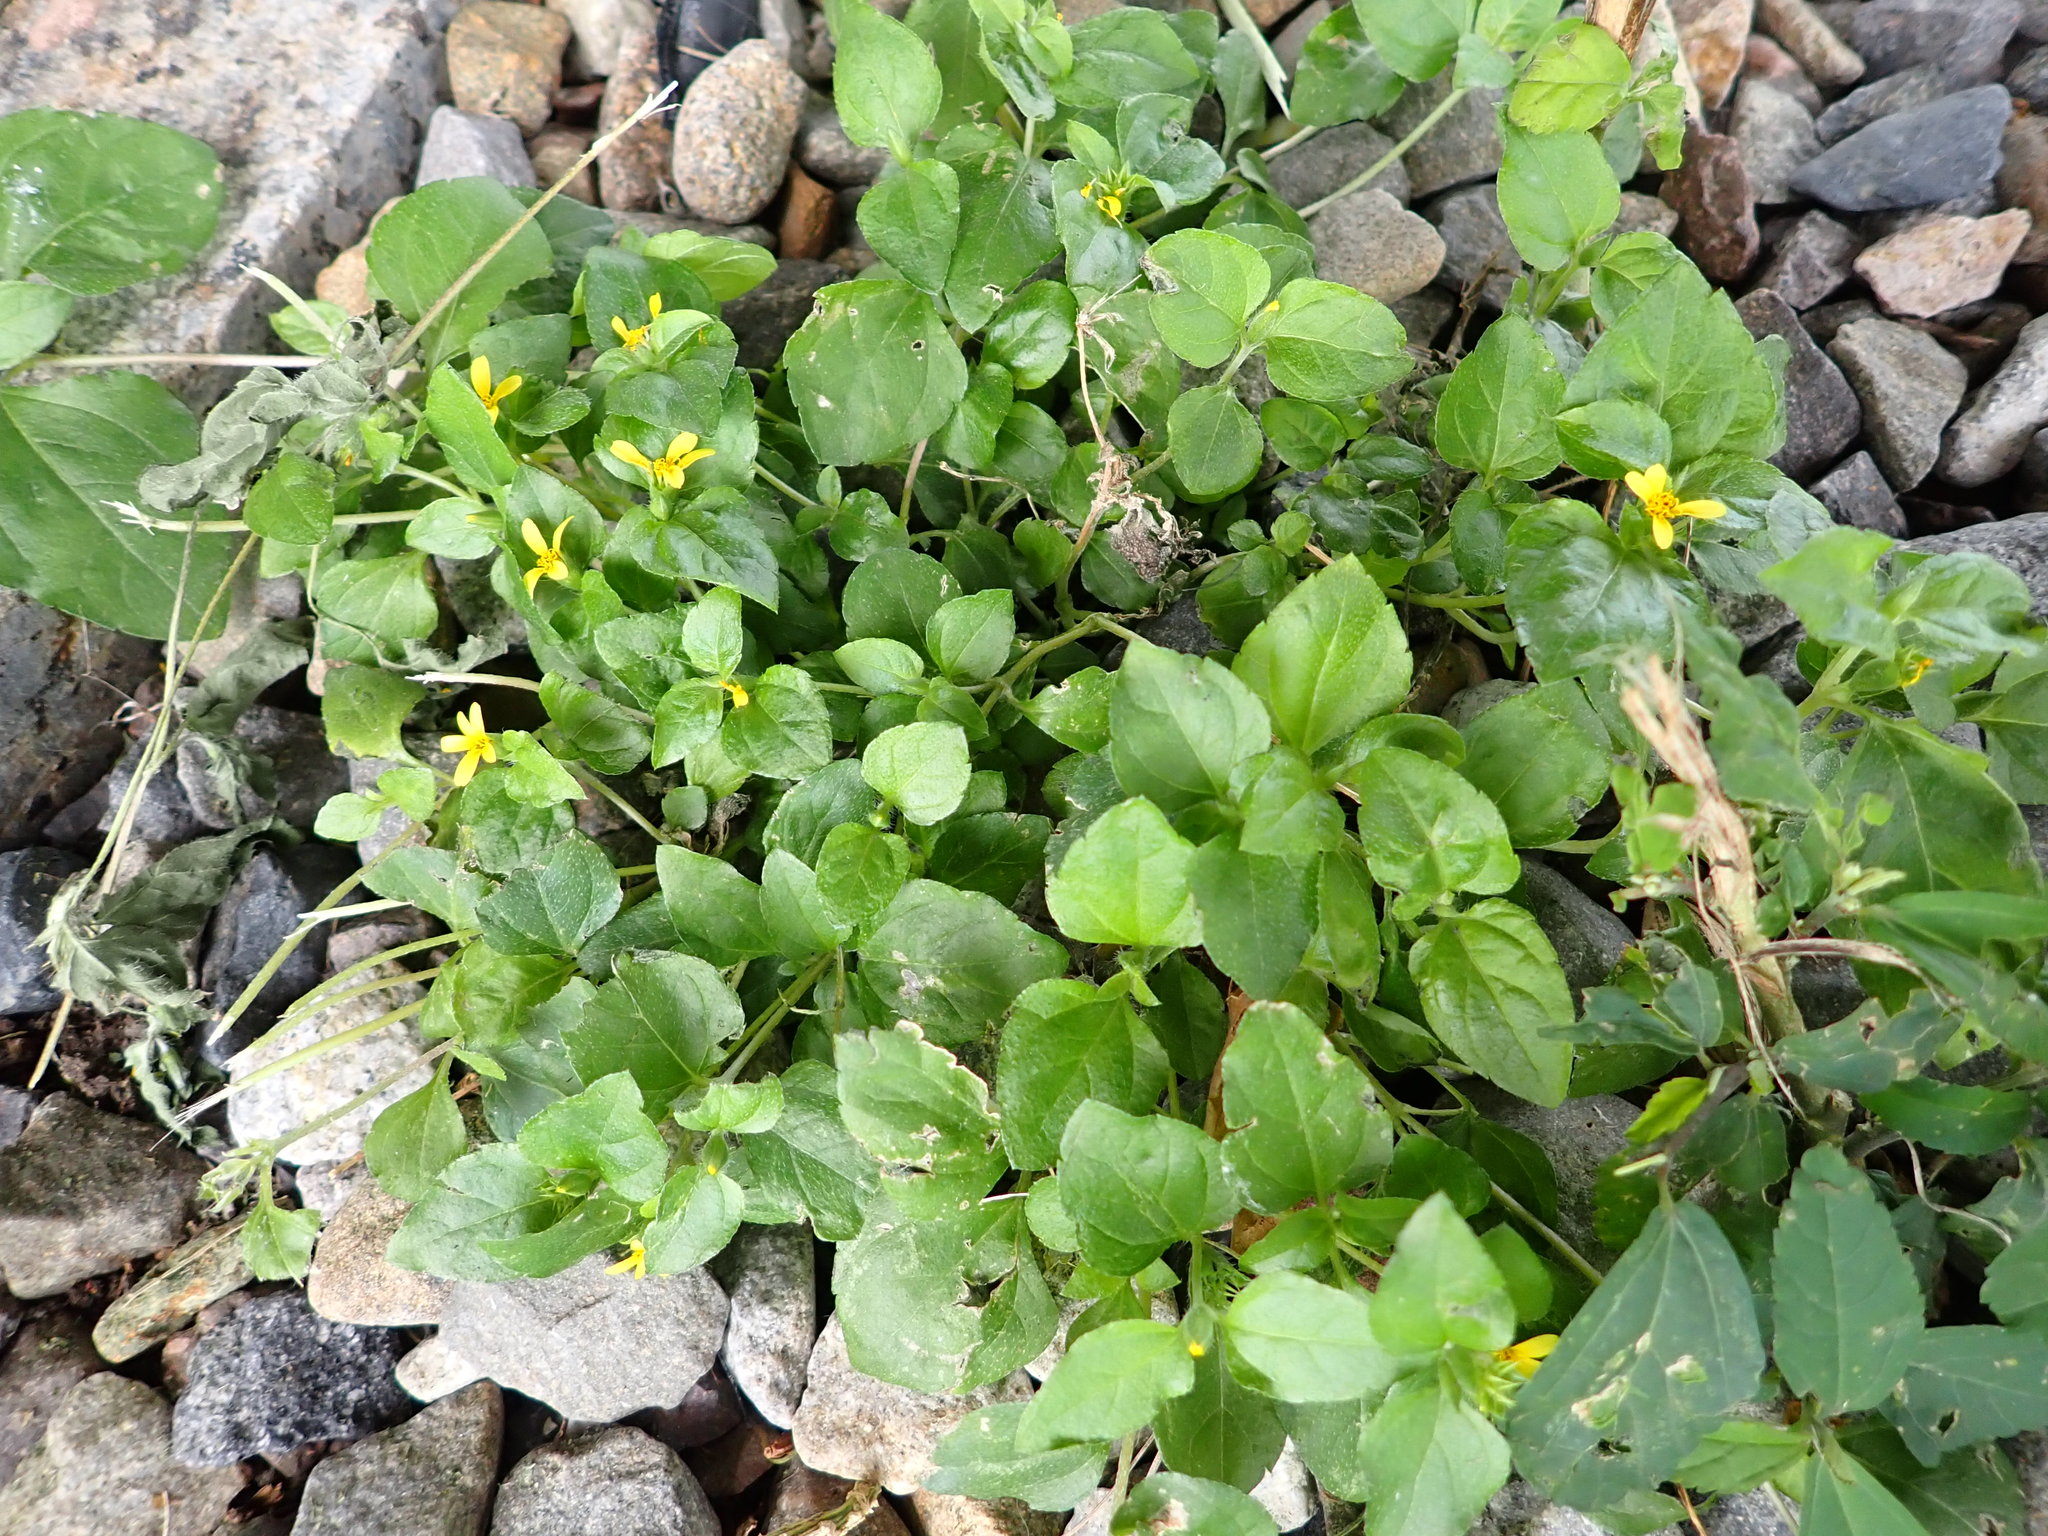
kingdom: Plantae
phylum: Tracheophyta
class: Magnoliopsida
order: Asterales
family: Asteraceae
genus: Calyptocarpus
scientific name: Calyptocarpus vialis
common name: Straggler daisy
